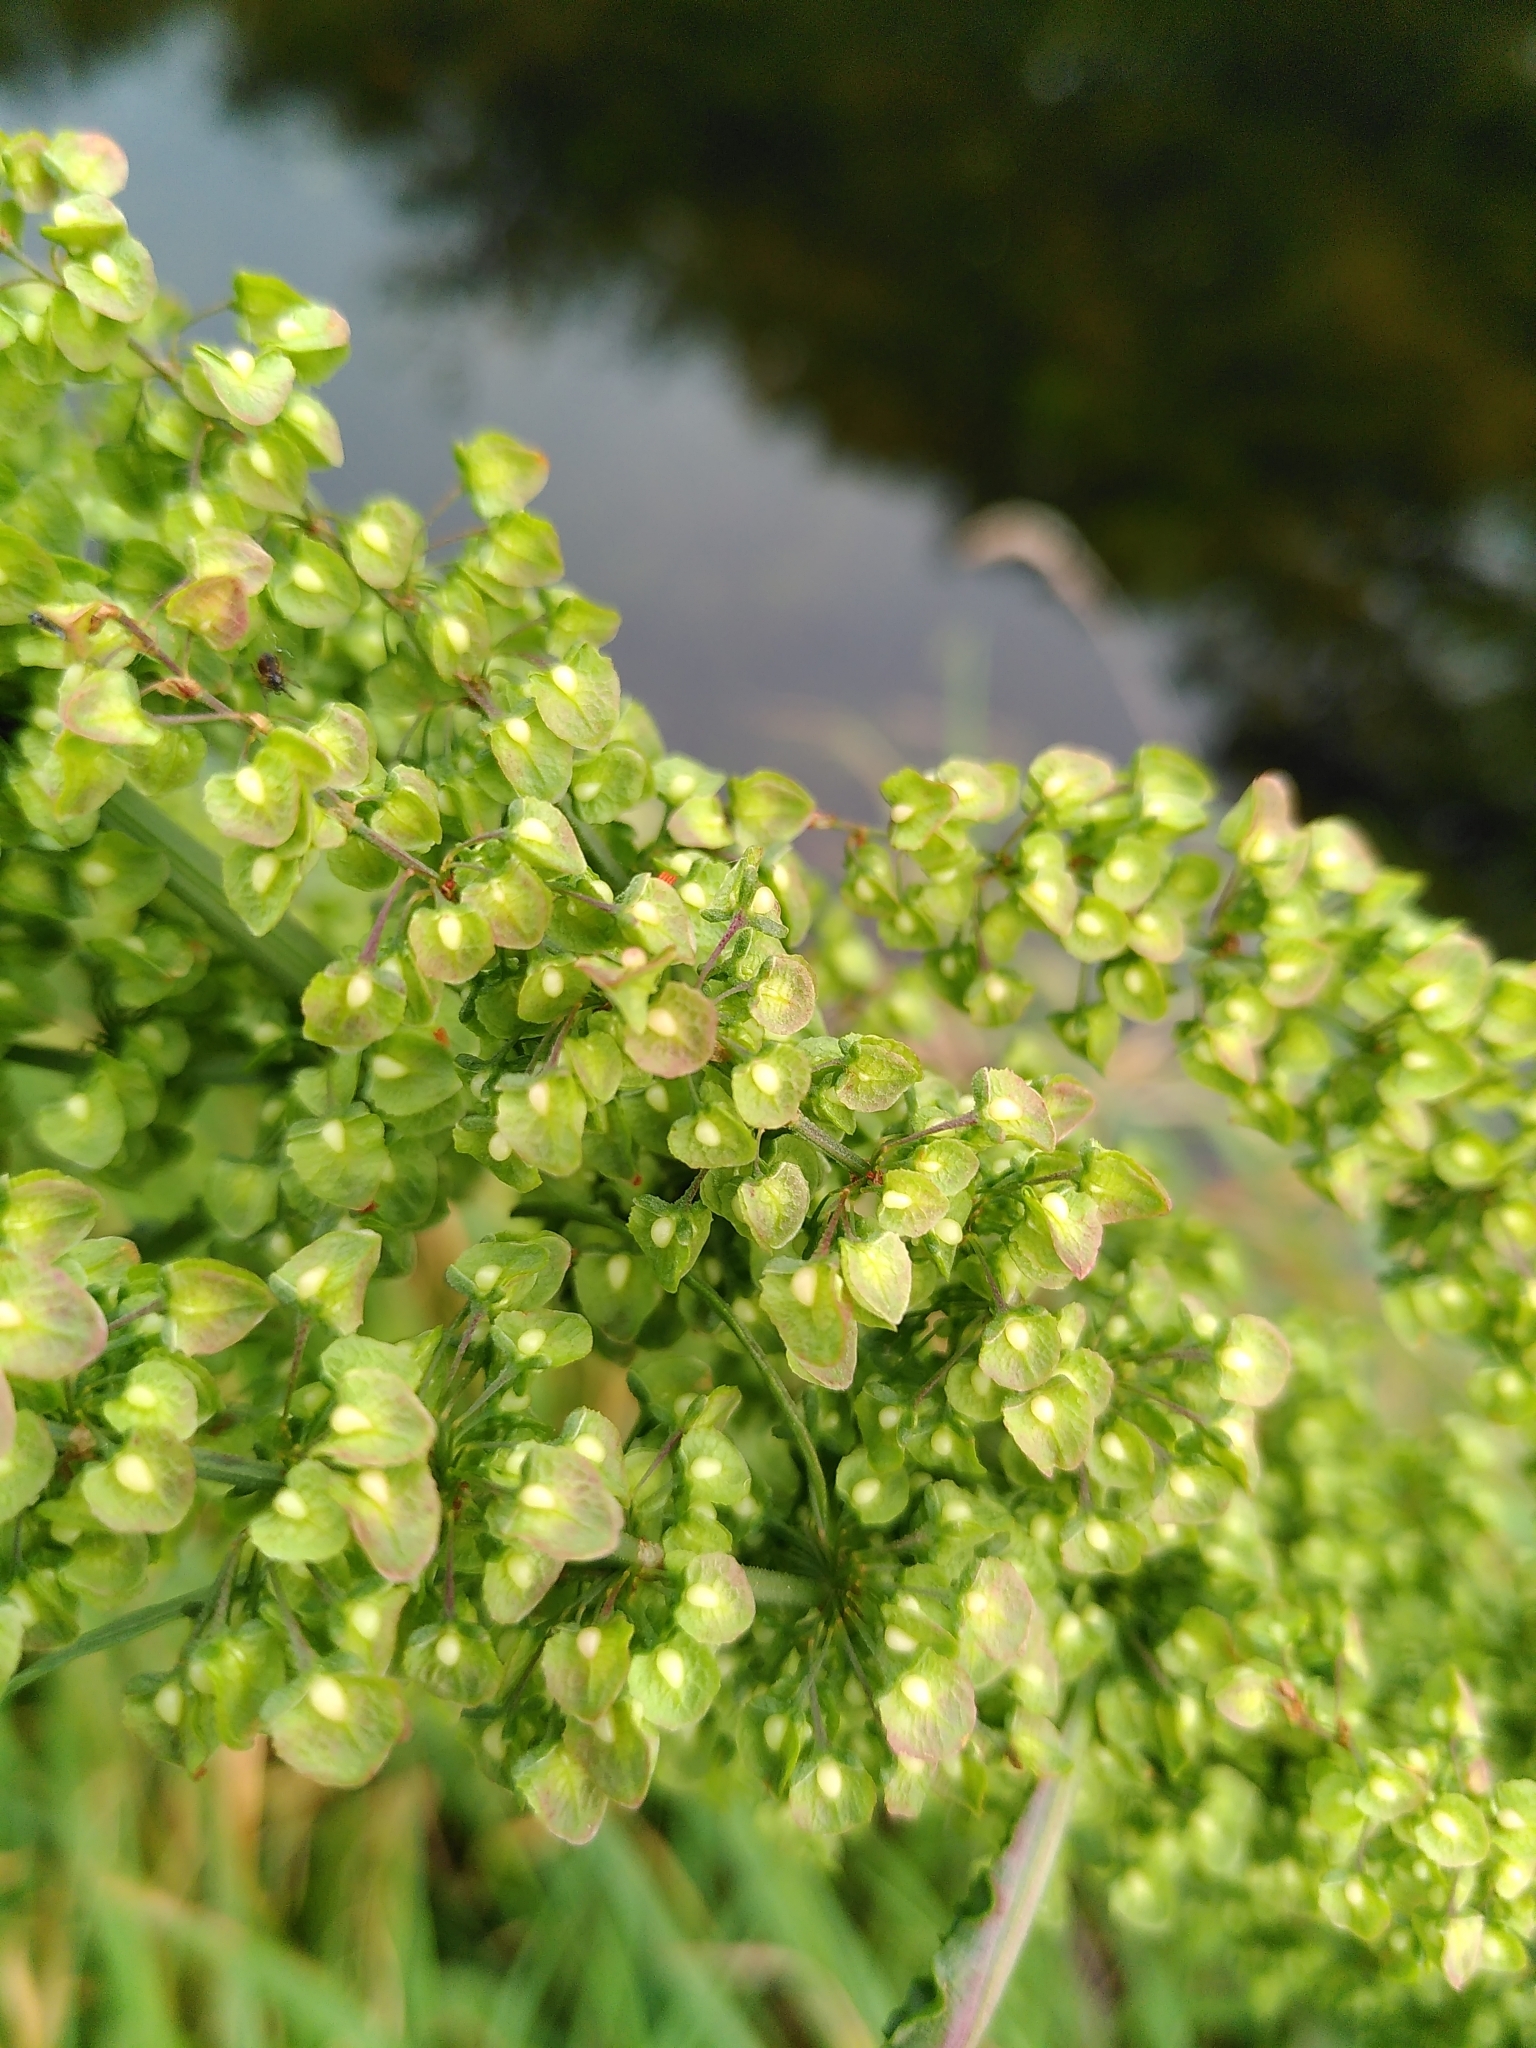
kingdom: Plantae
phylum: Tracheophyta
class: Magnoliopsida
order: Caryophyllales
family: Polygonaceae
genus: Rumex
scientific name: Rumex crispus
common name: Curled dock
